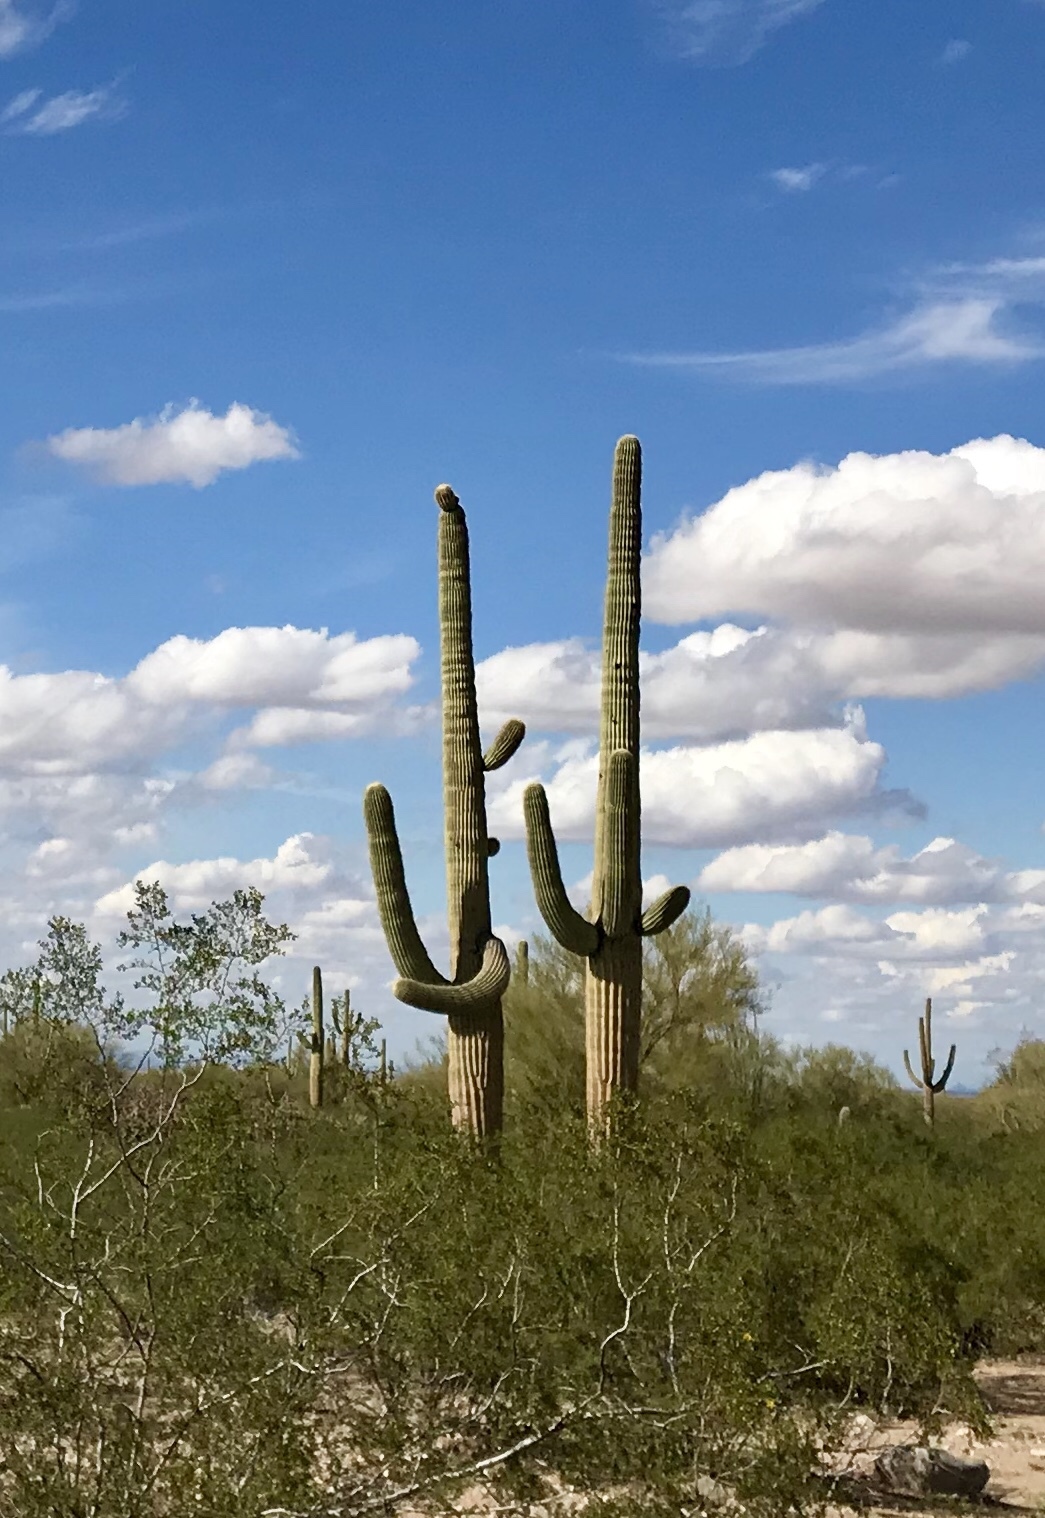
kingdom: Plantae
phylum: Tracheophyta
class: Magnoliopsida
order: Caryophyllales
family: Cactaceae
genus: Carnegiea
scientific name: Carnegiea gigantea
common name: Saguaro
